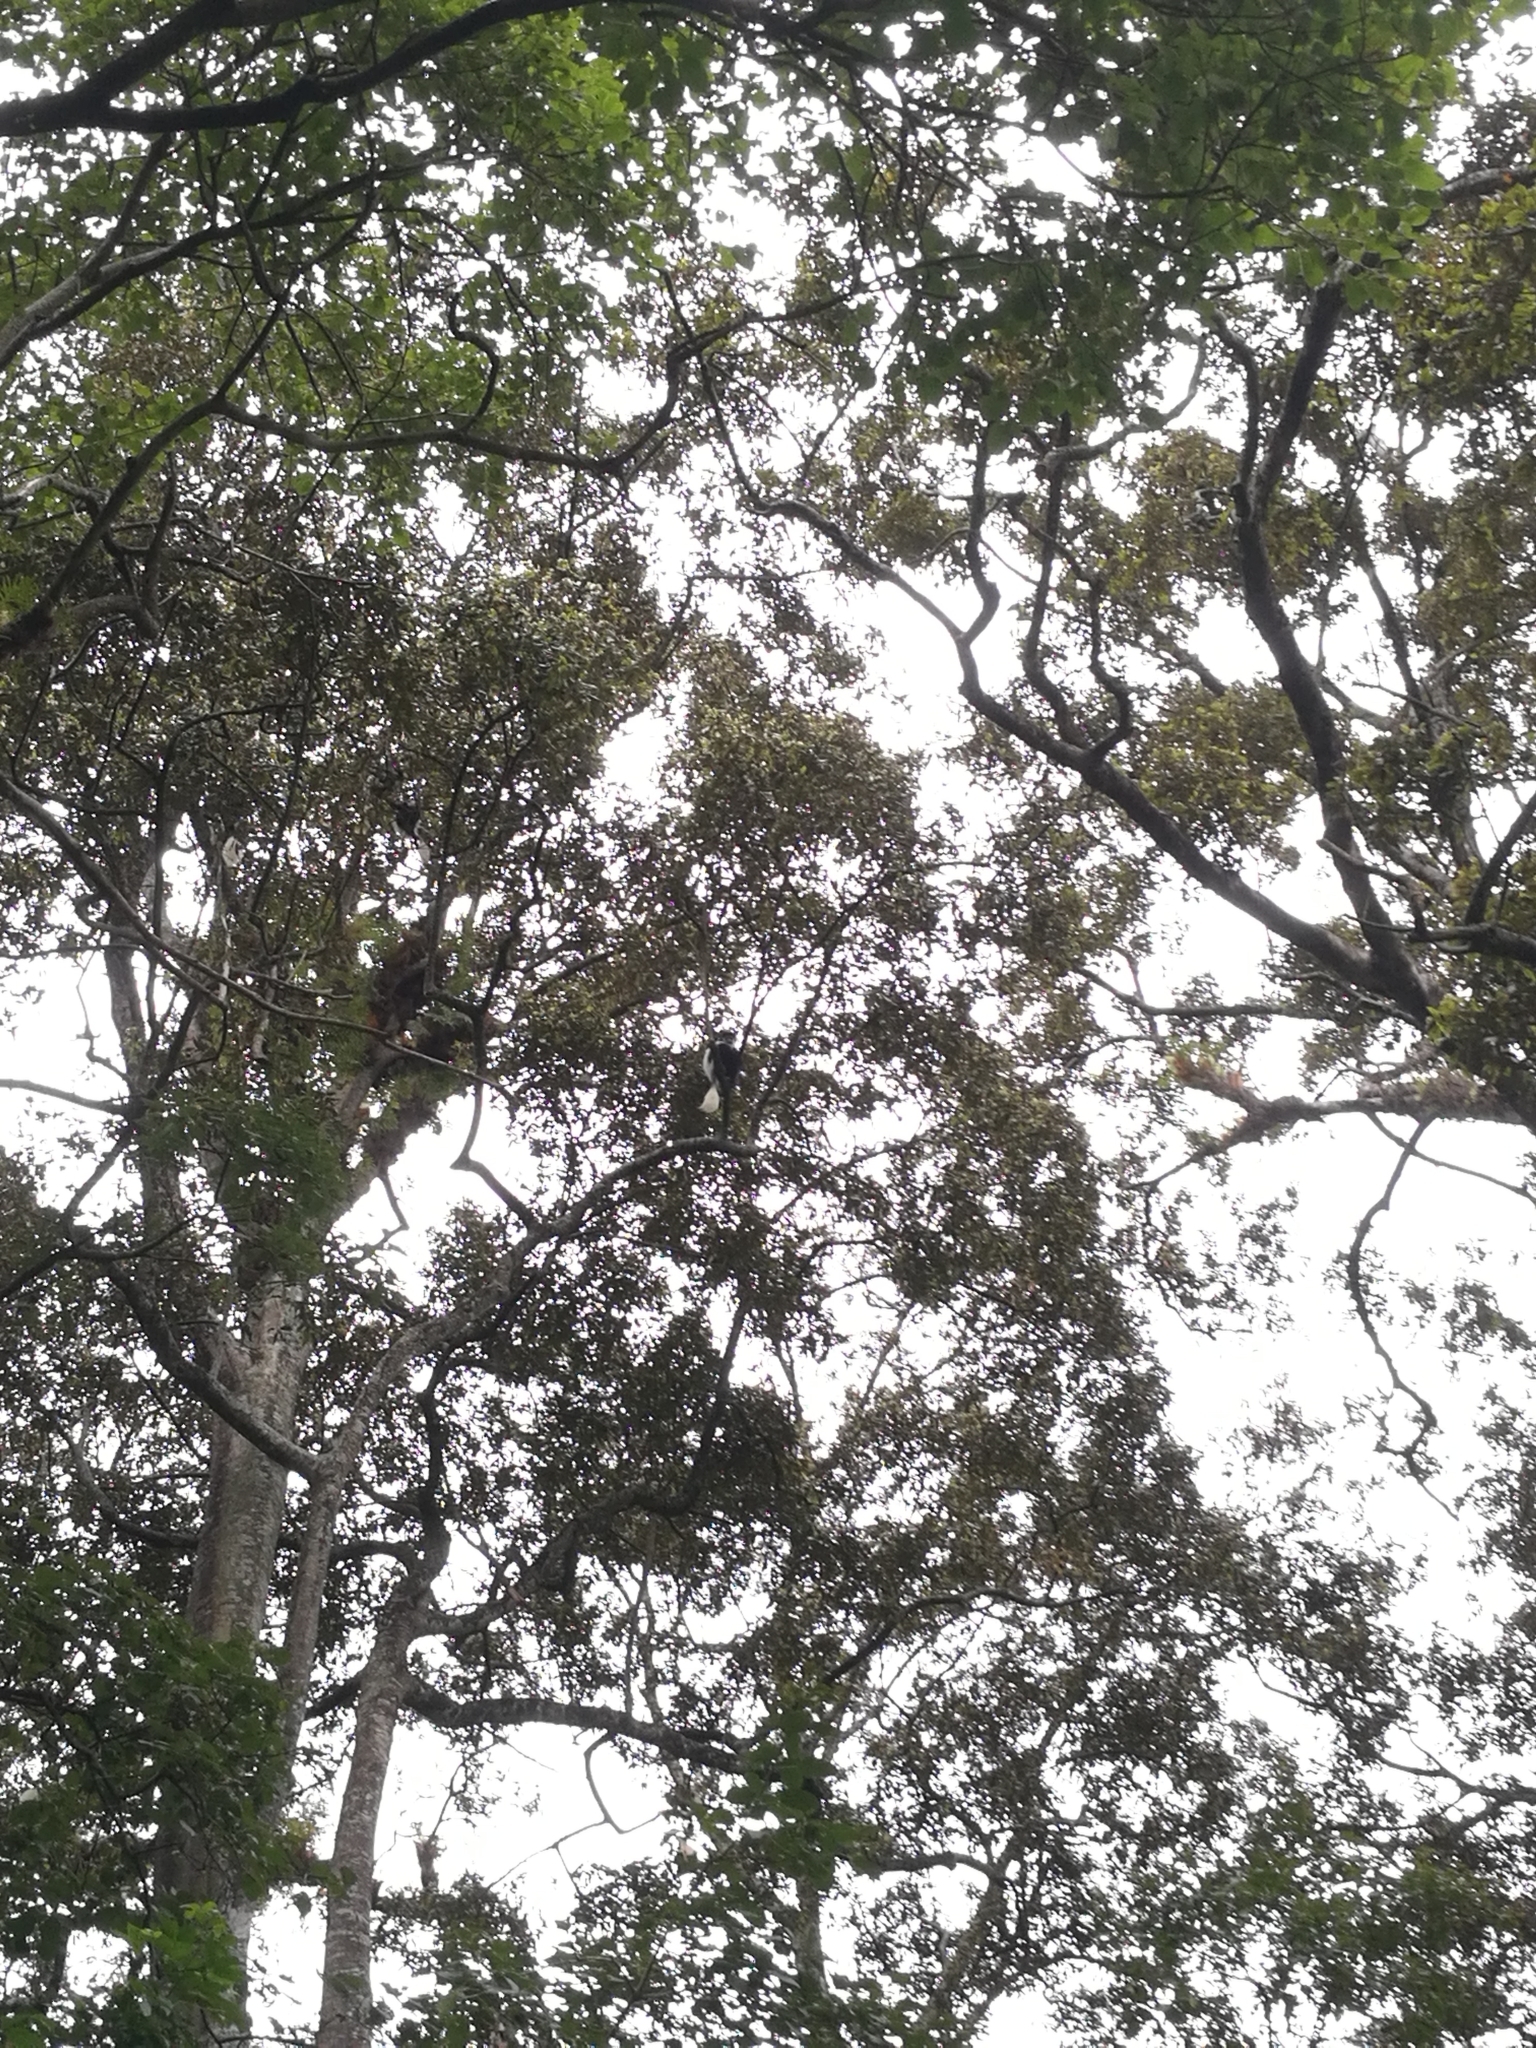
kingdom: Animalia
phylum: Chordata
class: Mammalia
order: Primates
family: Cercopithecidae
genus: Colobus
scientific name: Colobus guereza
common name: Mantled guereza
